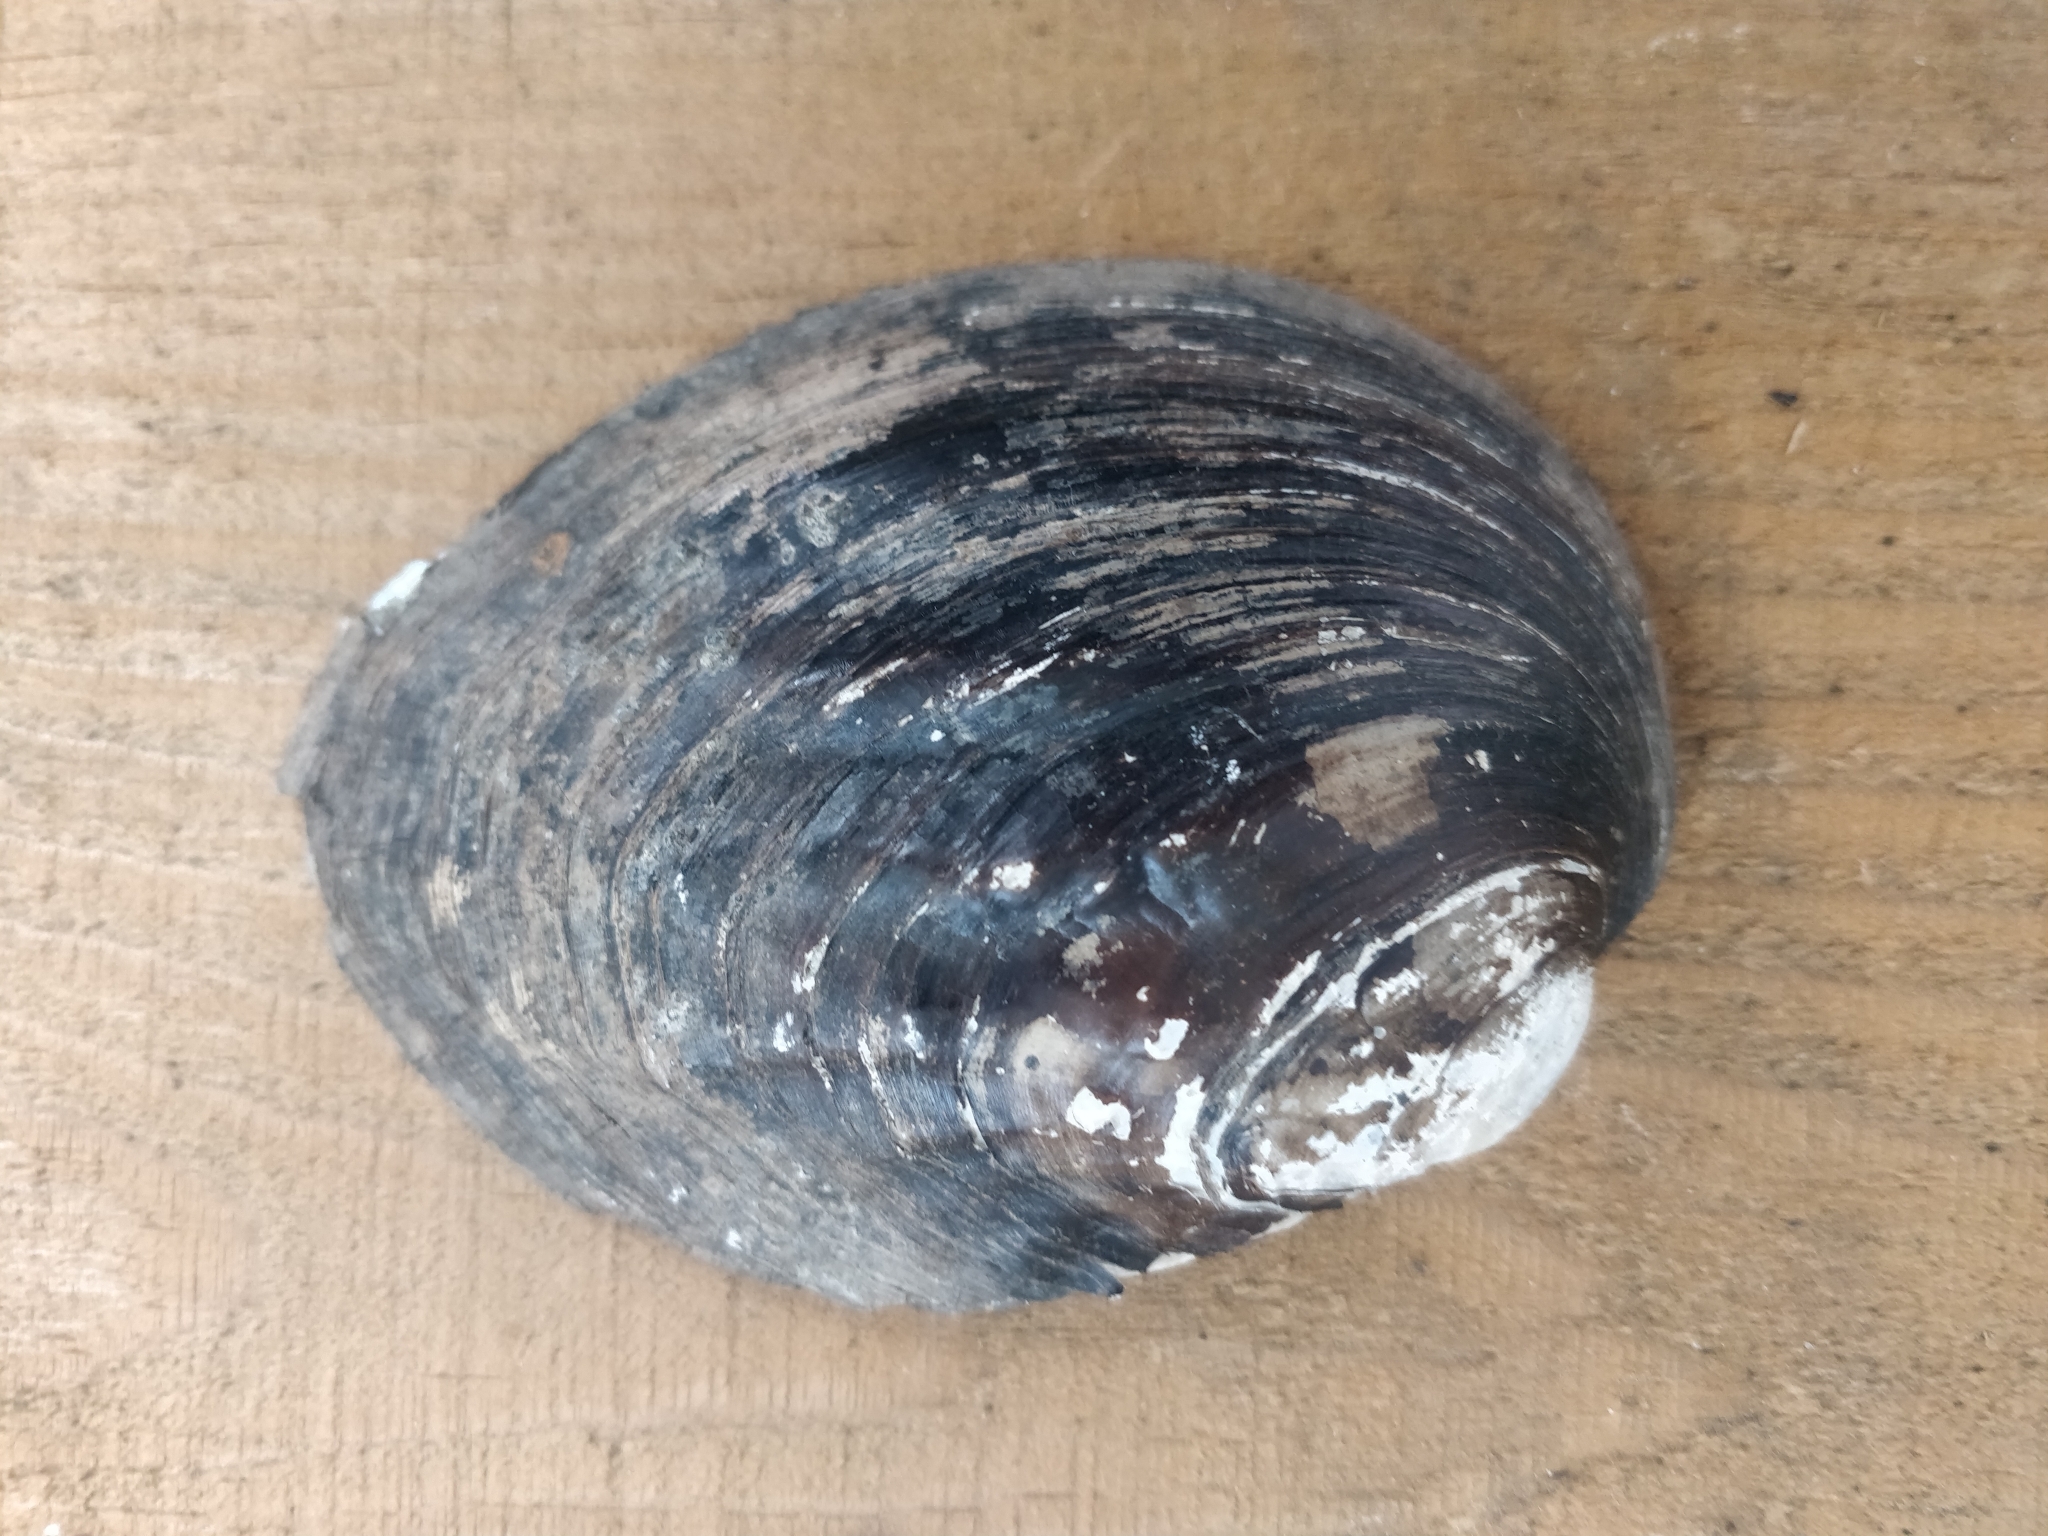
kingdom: Animalia
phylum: Mollusca
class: Bivalvia
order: Unionida
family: Unionidae
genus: Amblema
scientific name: Amblema plicata
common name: Threeridge
